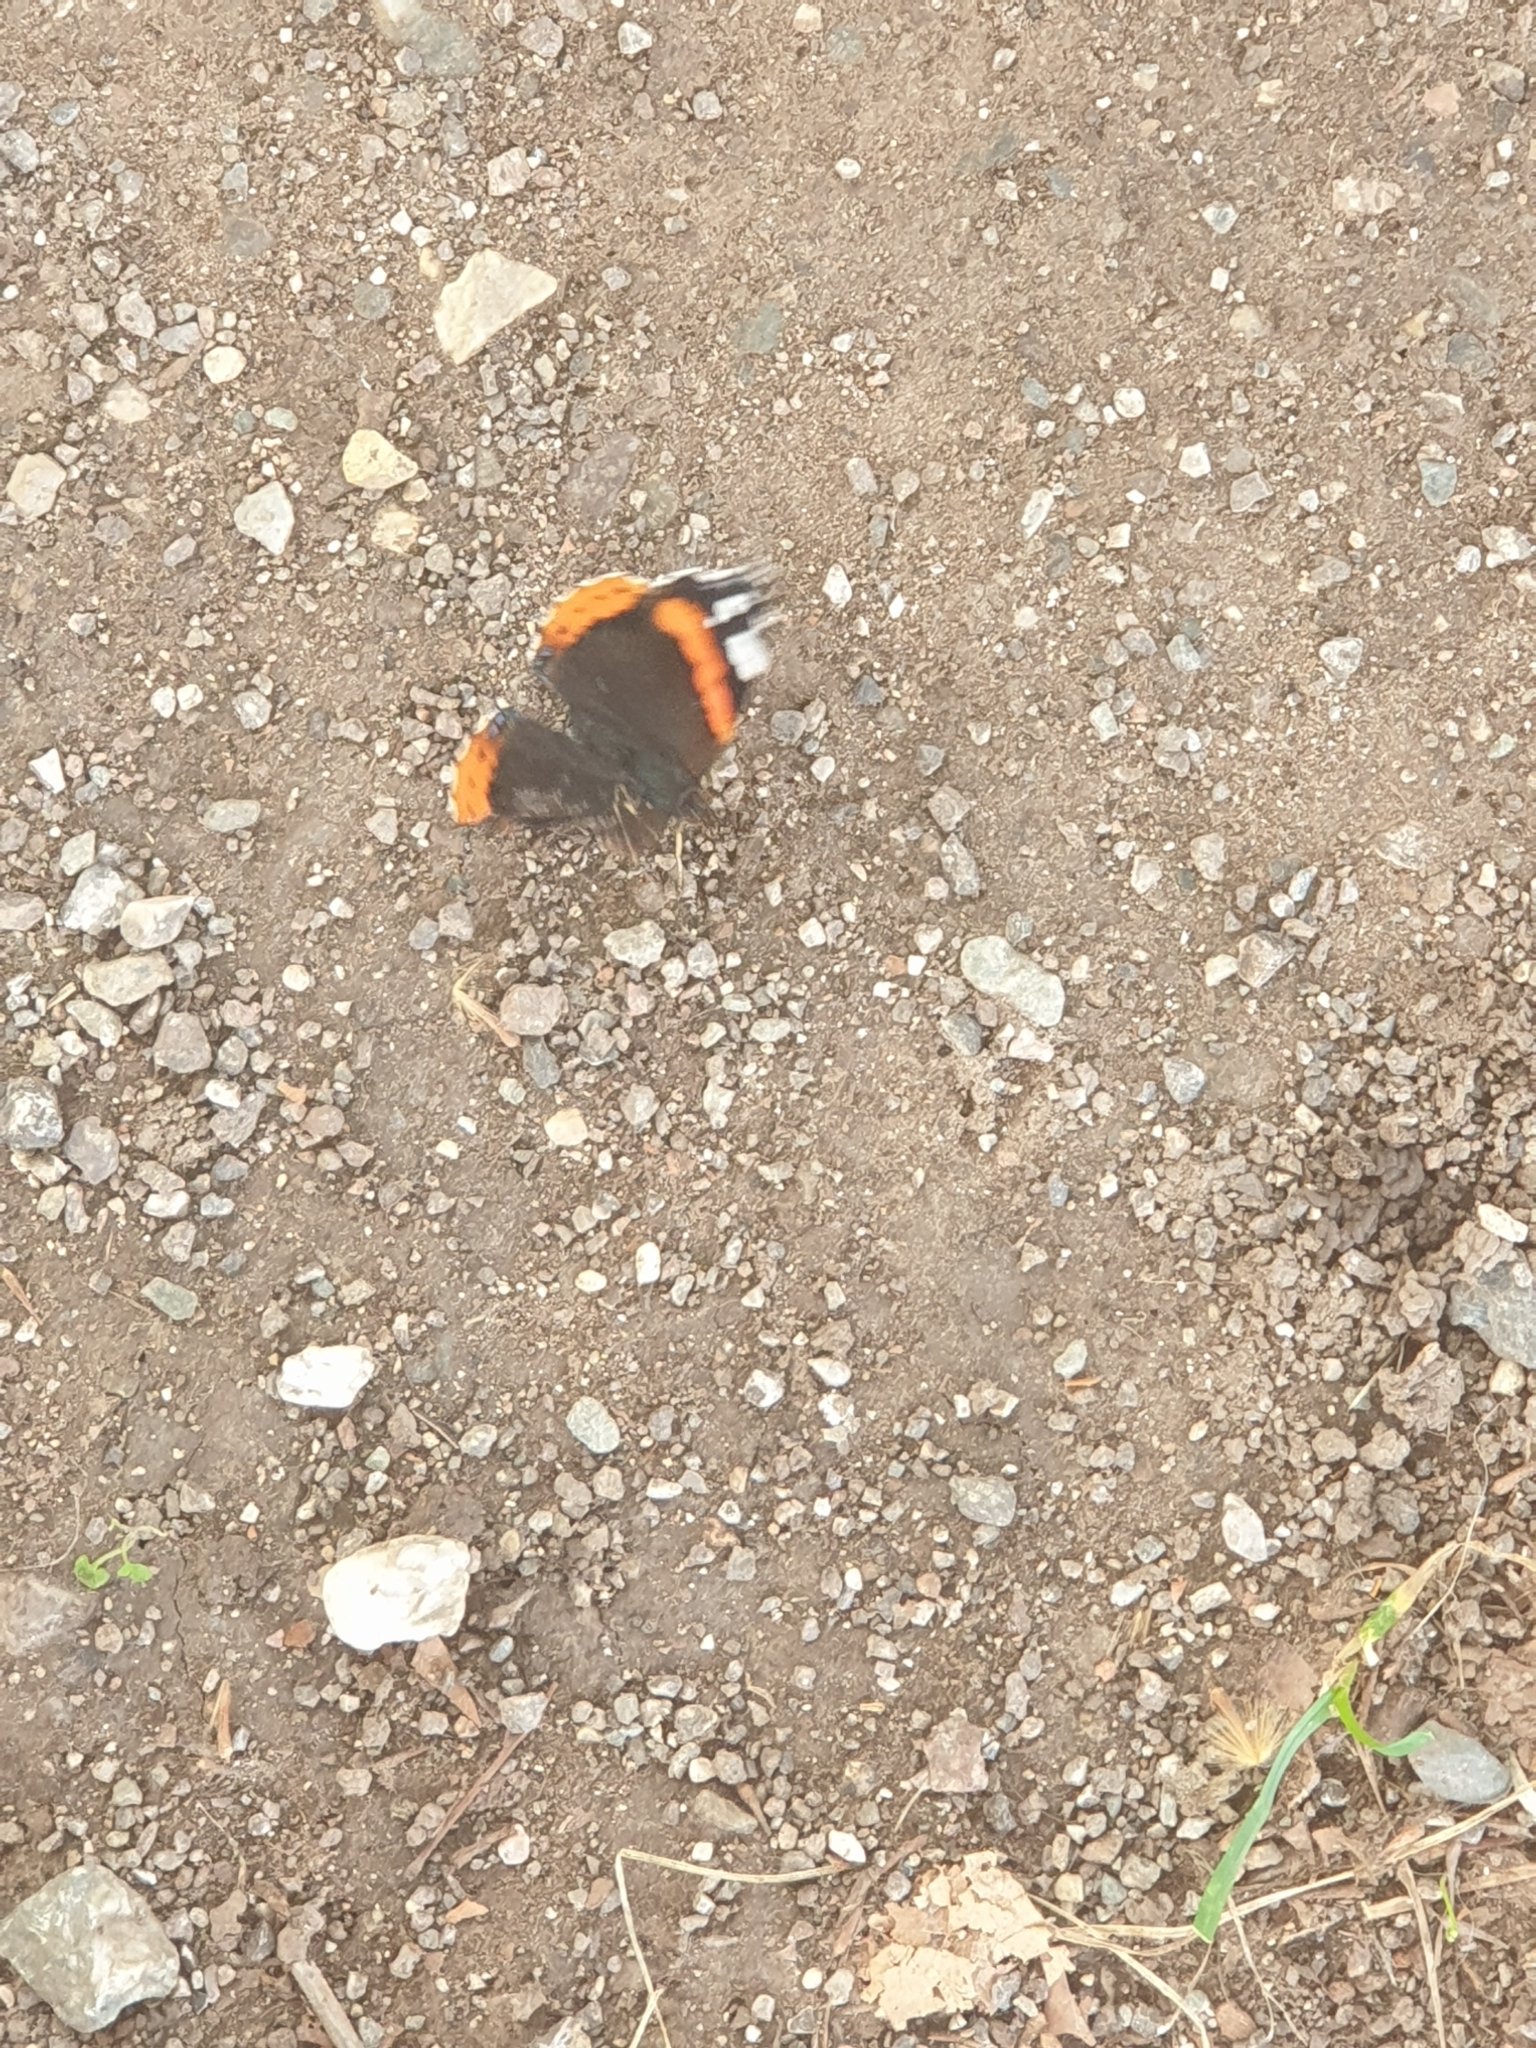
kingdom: Animalia
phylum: Arthropoda
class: Insecta
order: Lepidoptera
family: Nymphalidae
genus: Vanessa
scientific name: Vanessa atalanta
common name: Red admiral
